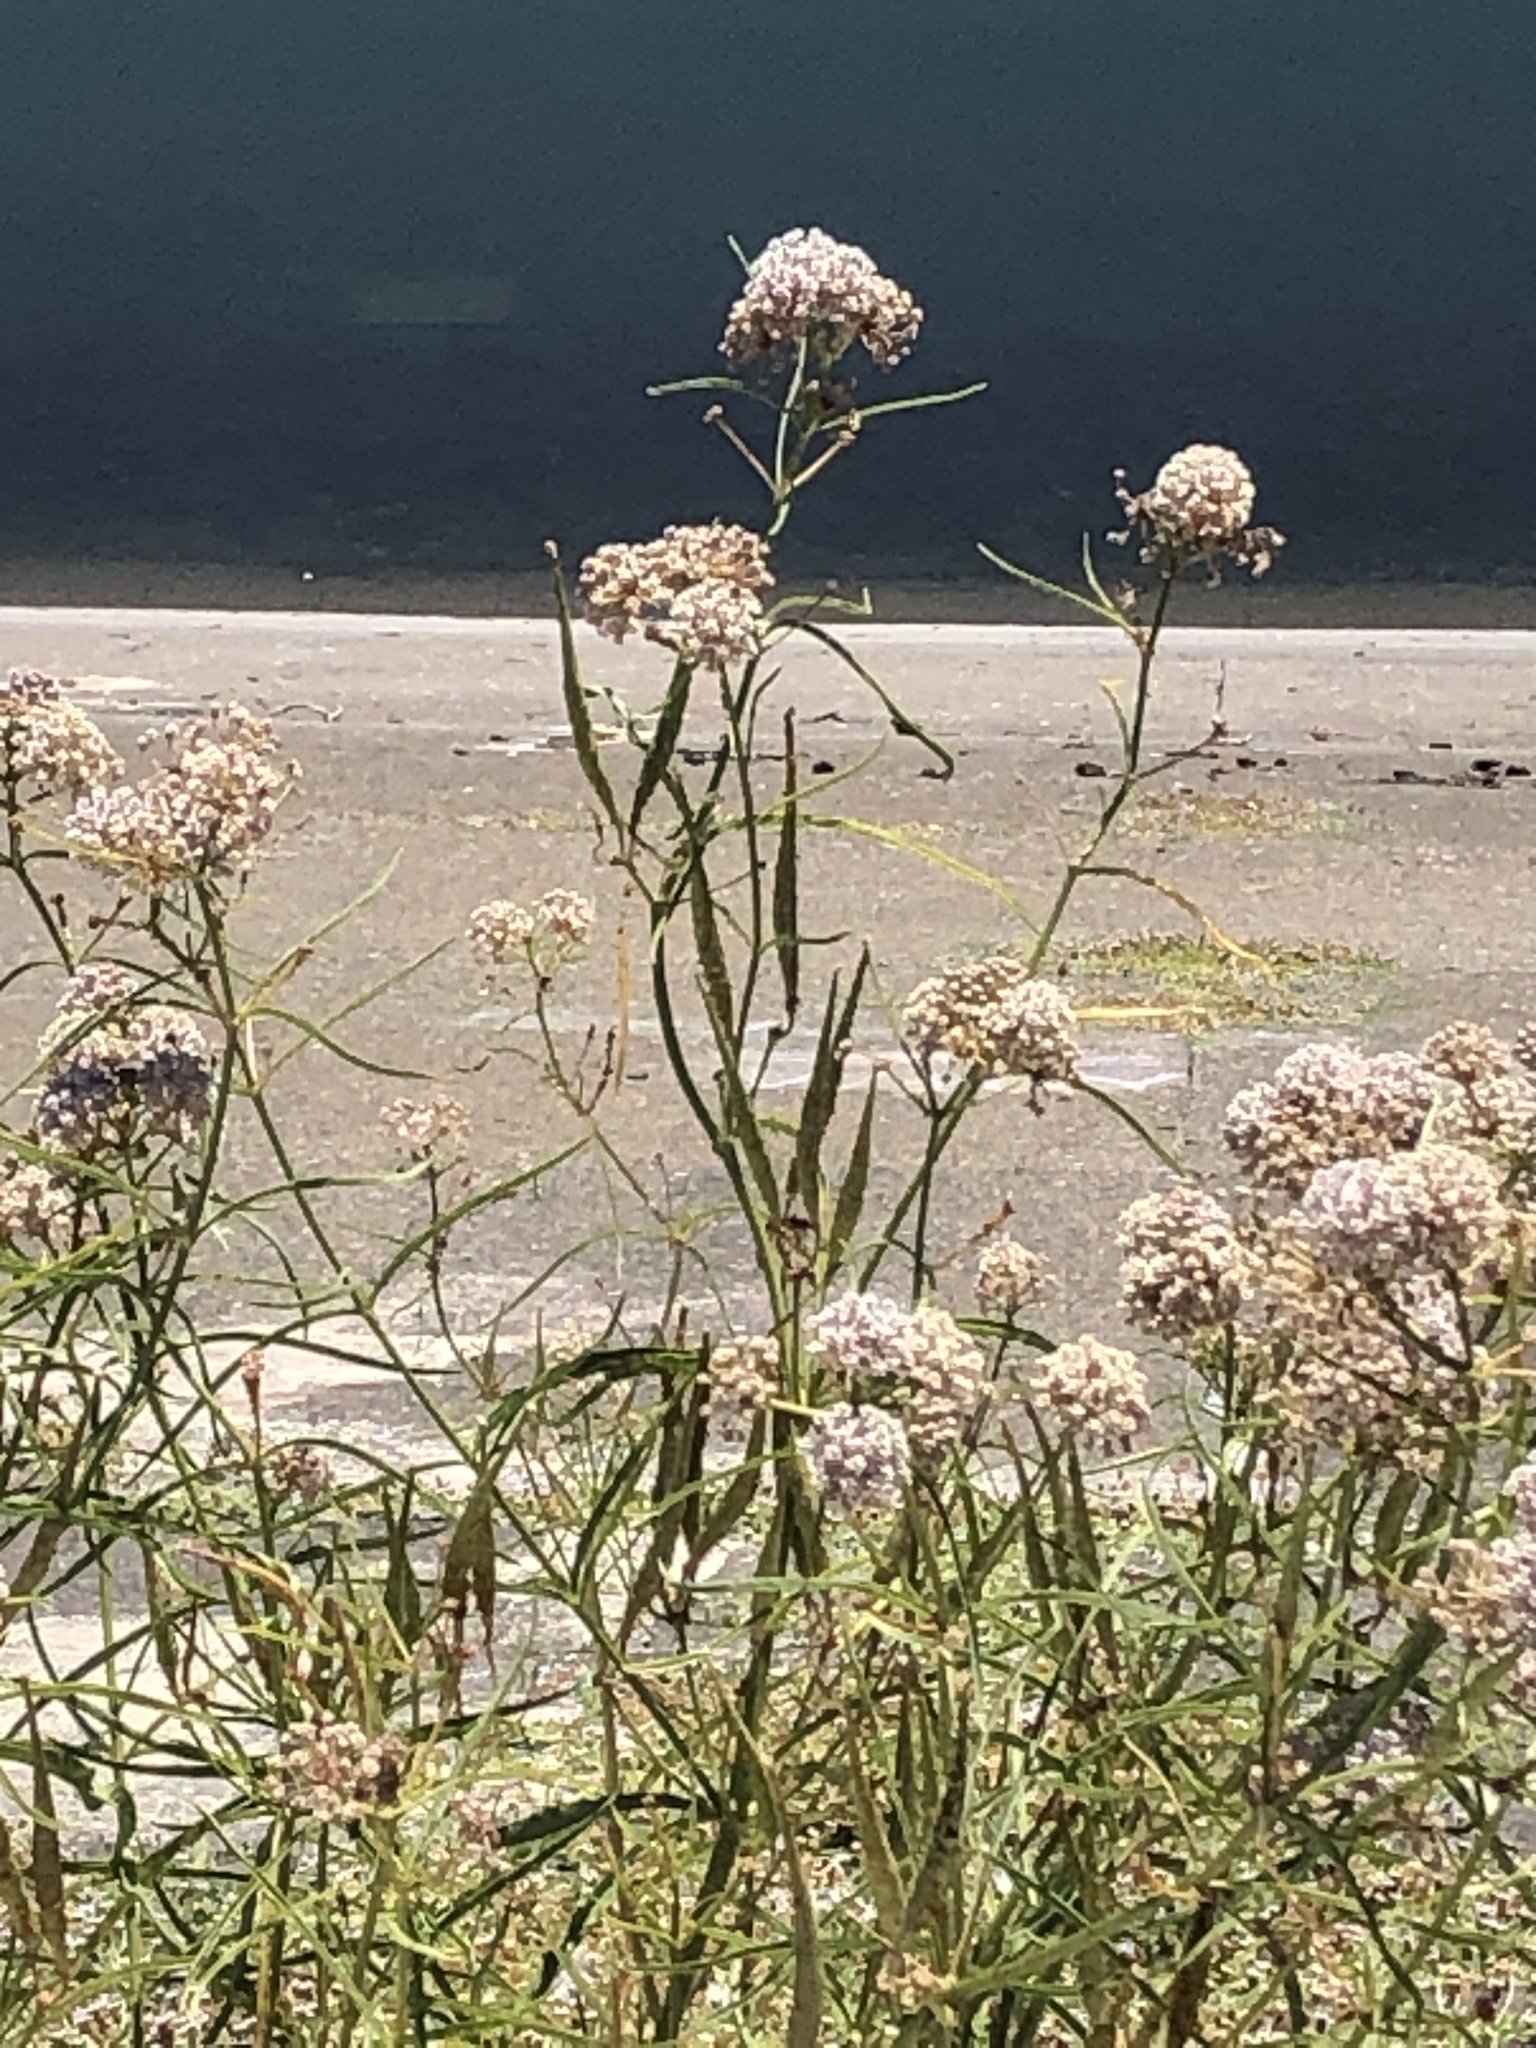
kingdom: Plantae
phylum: Tracheophyta
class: Magnoliopsida
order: Gentianales
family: Apocynaceae
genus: Asclepias
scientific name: Asclepias fascicularis
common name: Mexican milkweed
